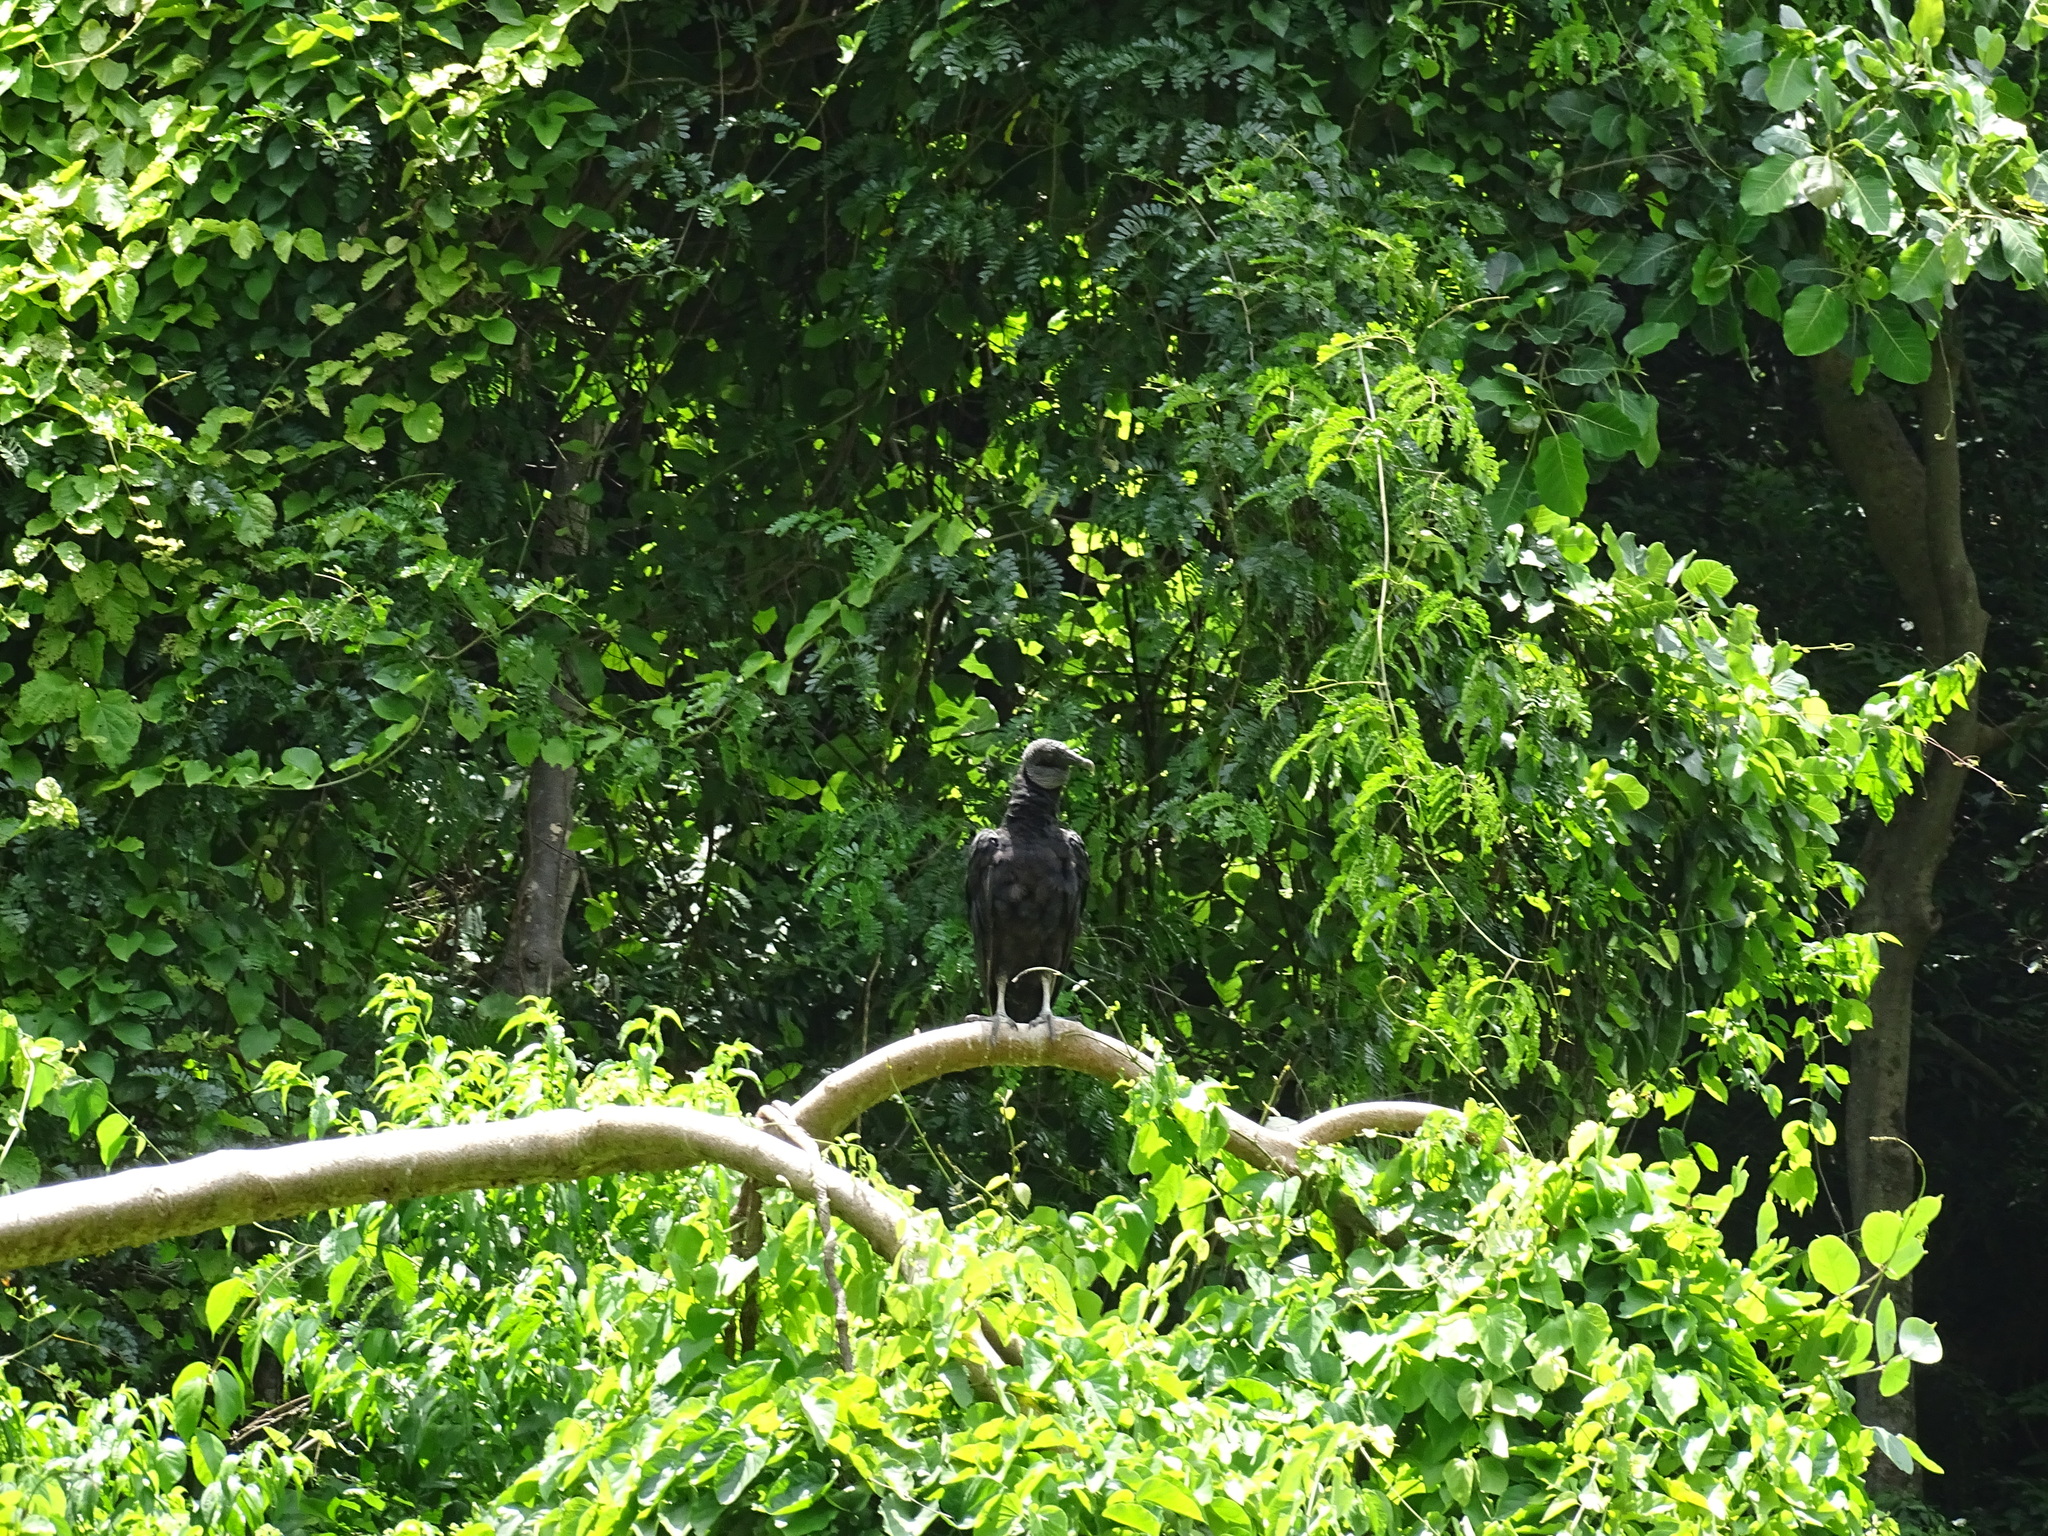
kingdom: Animalia
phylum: Chordata
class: Aves
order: Accipitriformes
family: Cathartidae
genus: Coragyps
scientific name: Coragyps atratus
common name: Black vulture
